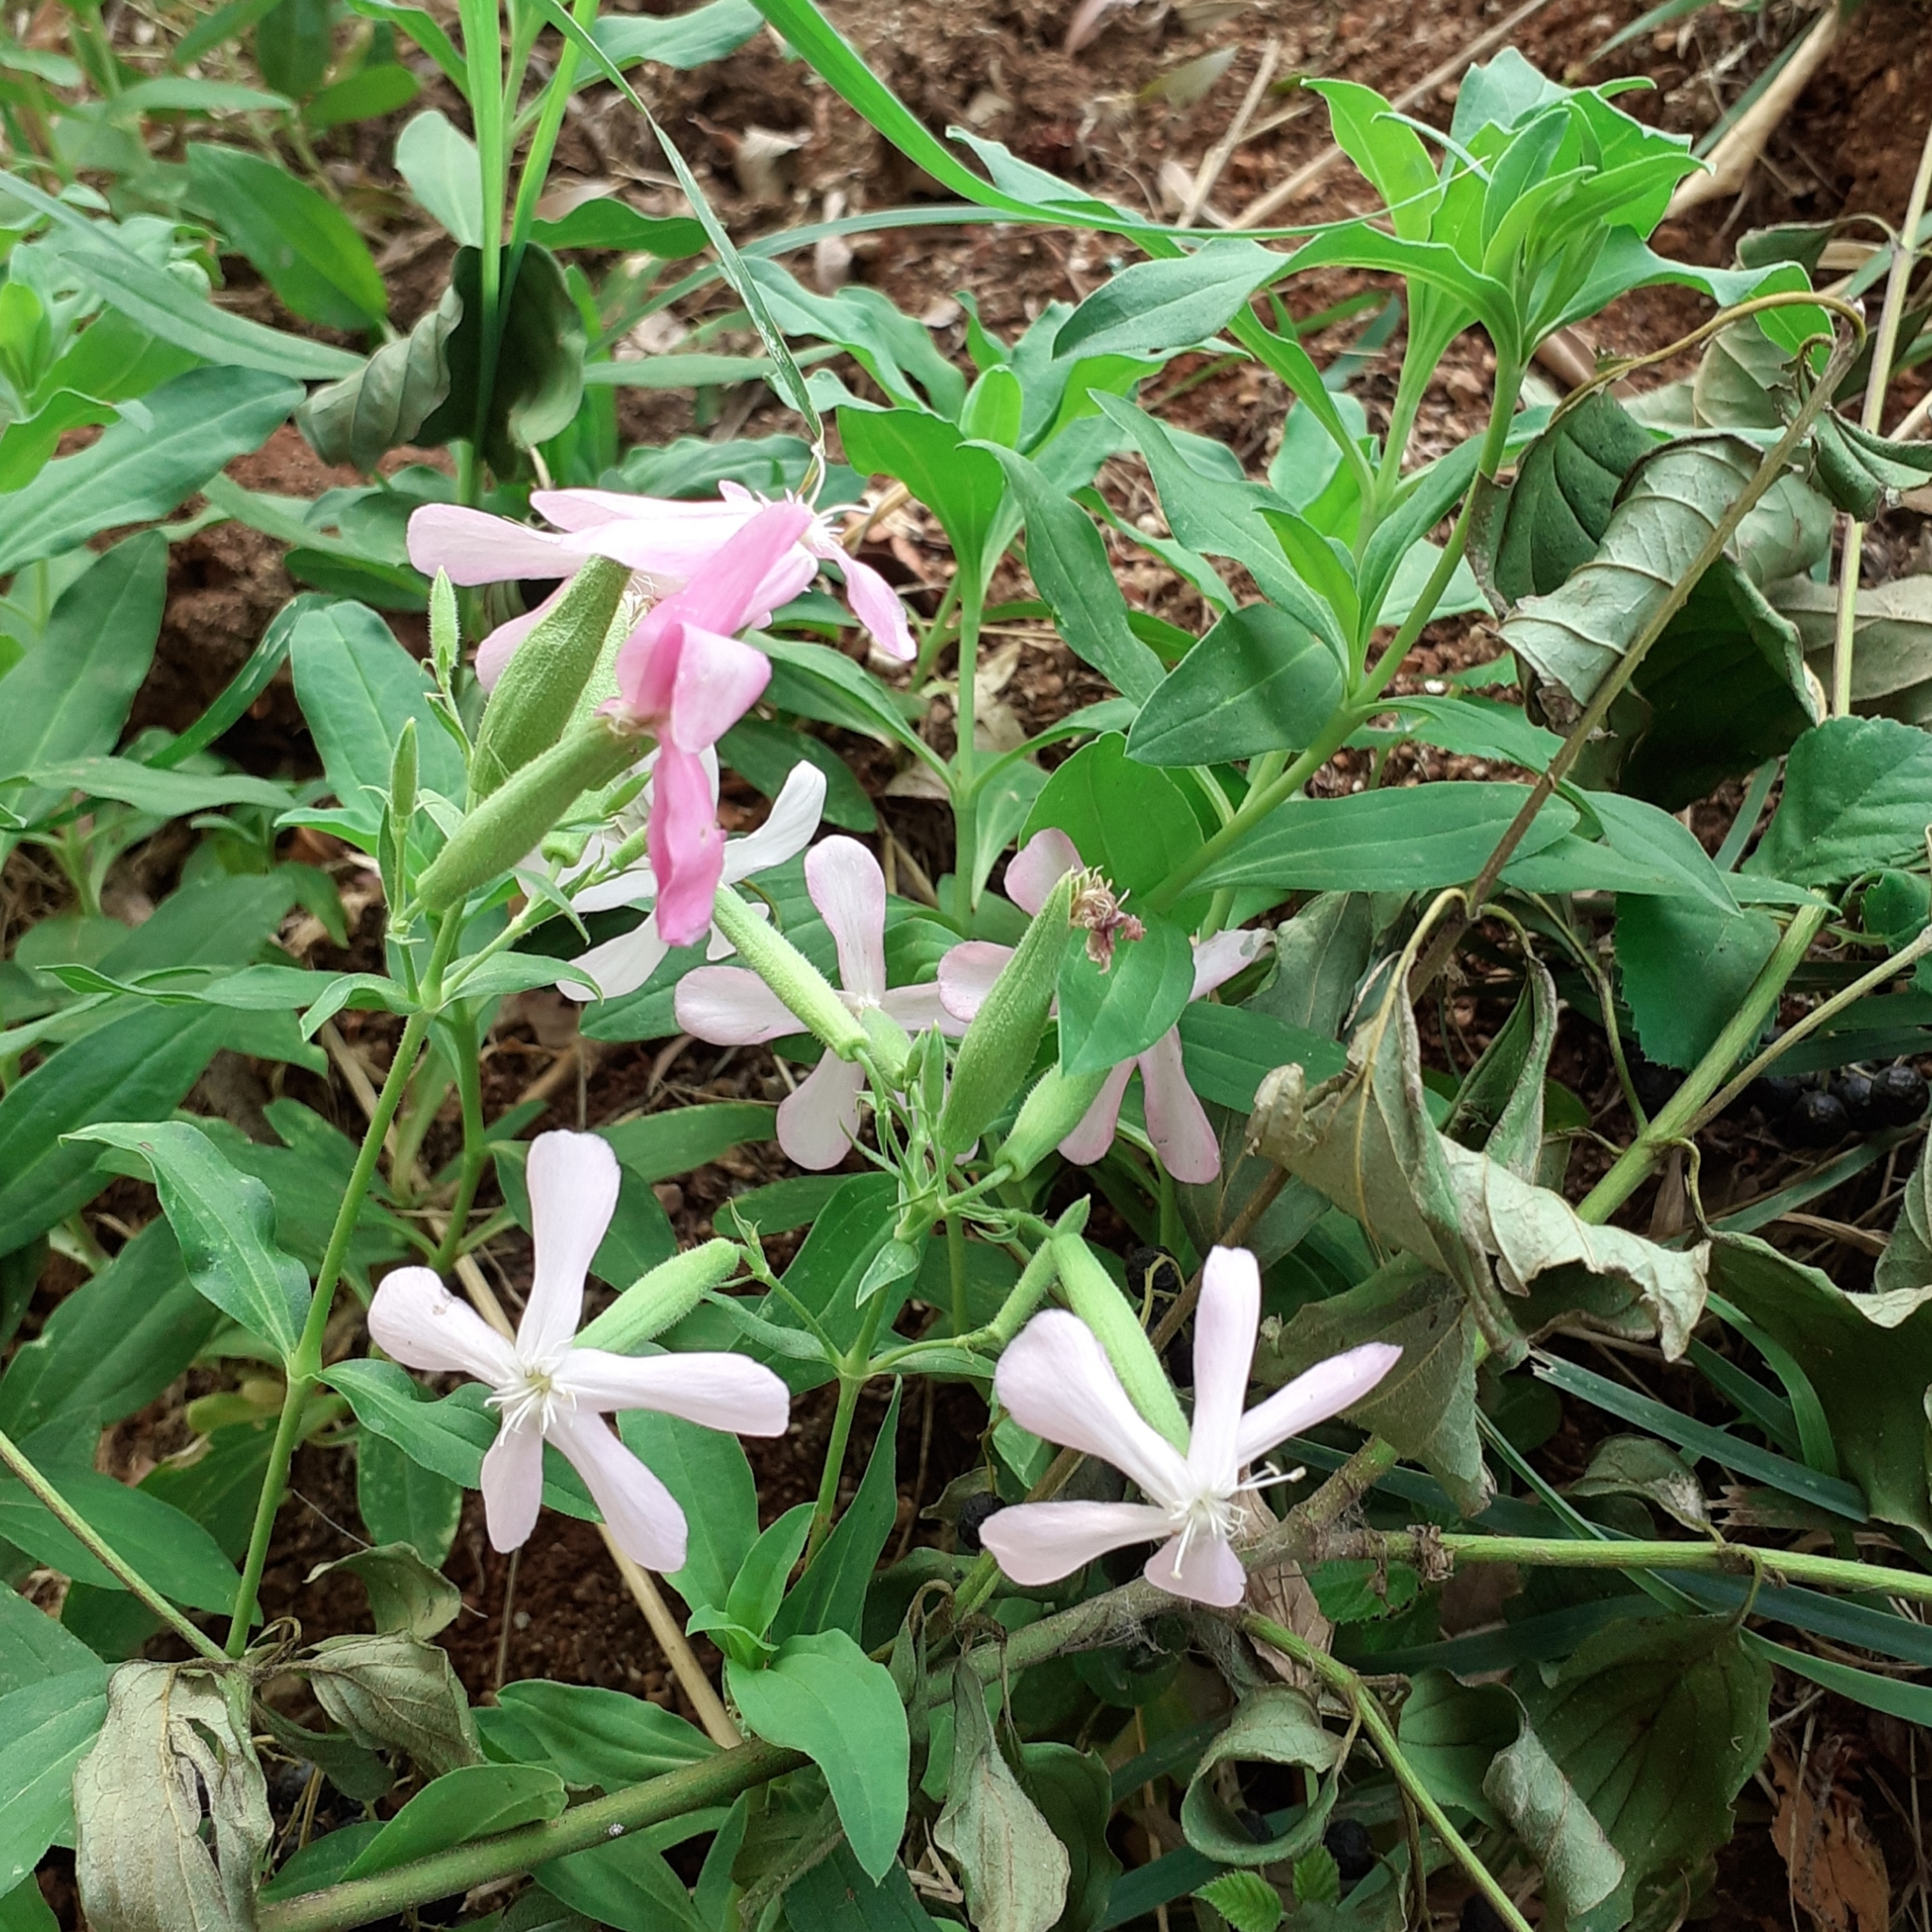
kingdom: Plantae
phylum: Tracheophyta
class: Magnoliopsida
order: Caryophyllales
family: Caryophyllaceae
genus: Saponaria
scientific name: Saponaria officinalis
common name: Soapwort
